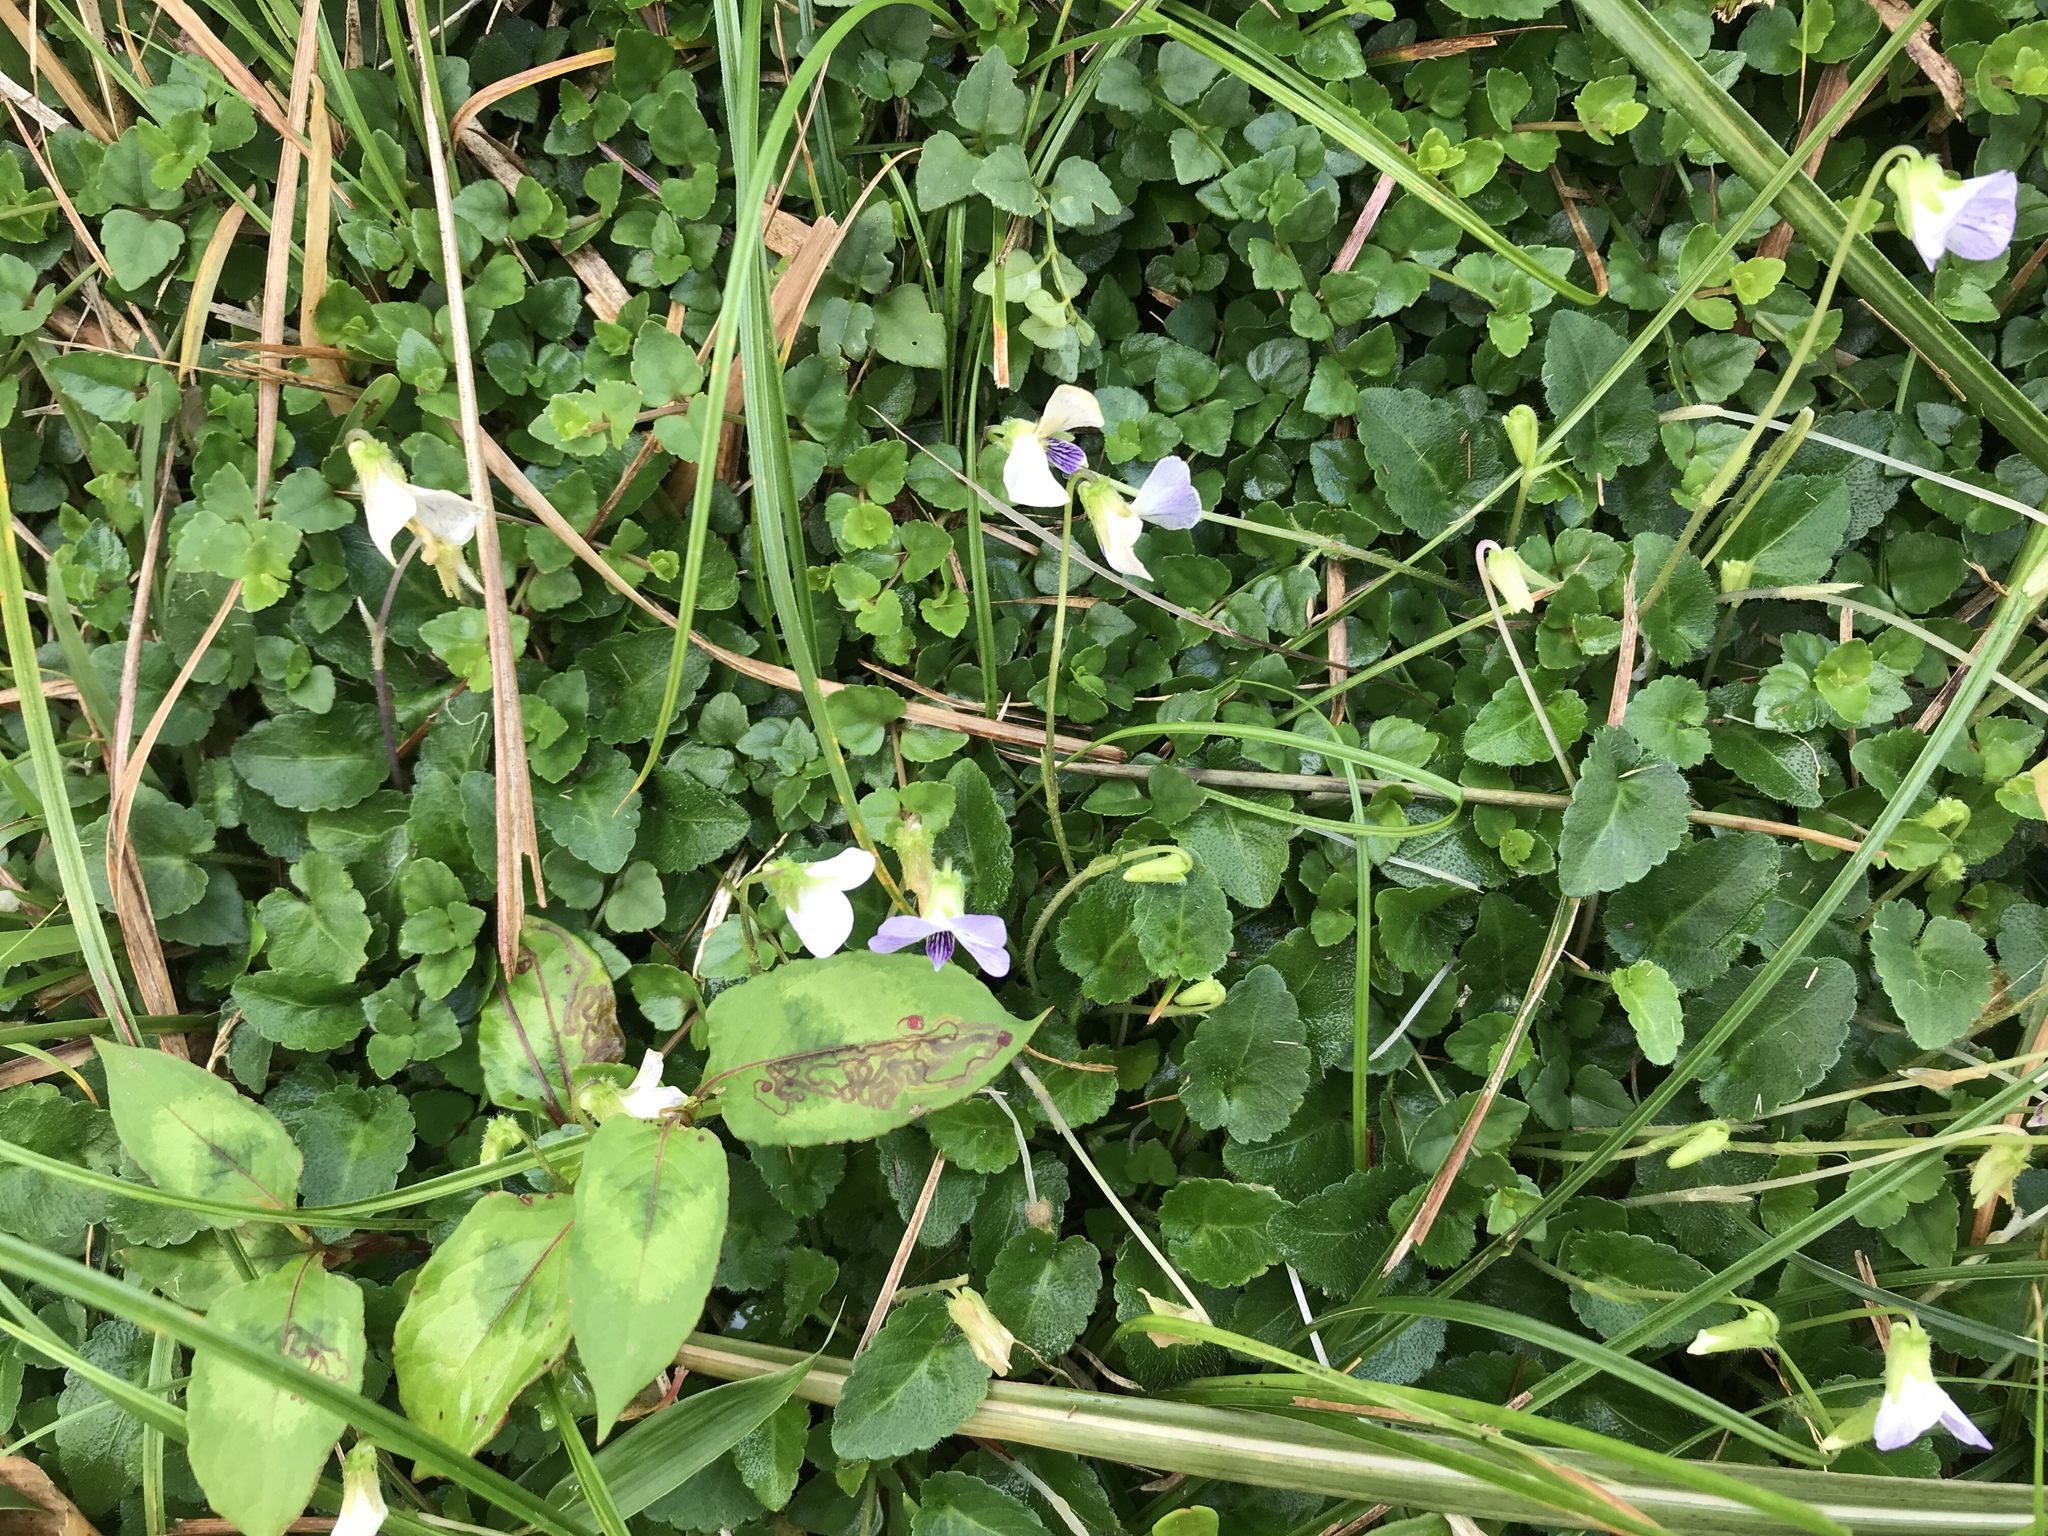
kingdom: Plantae
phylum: Tracheophyta
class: Magnoliopsida
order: Malpighiales
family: Violaceae
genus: Viola
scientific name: Viola nagasawae
